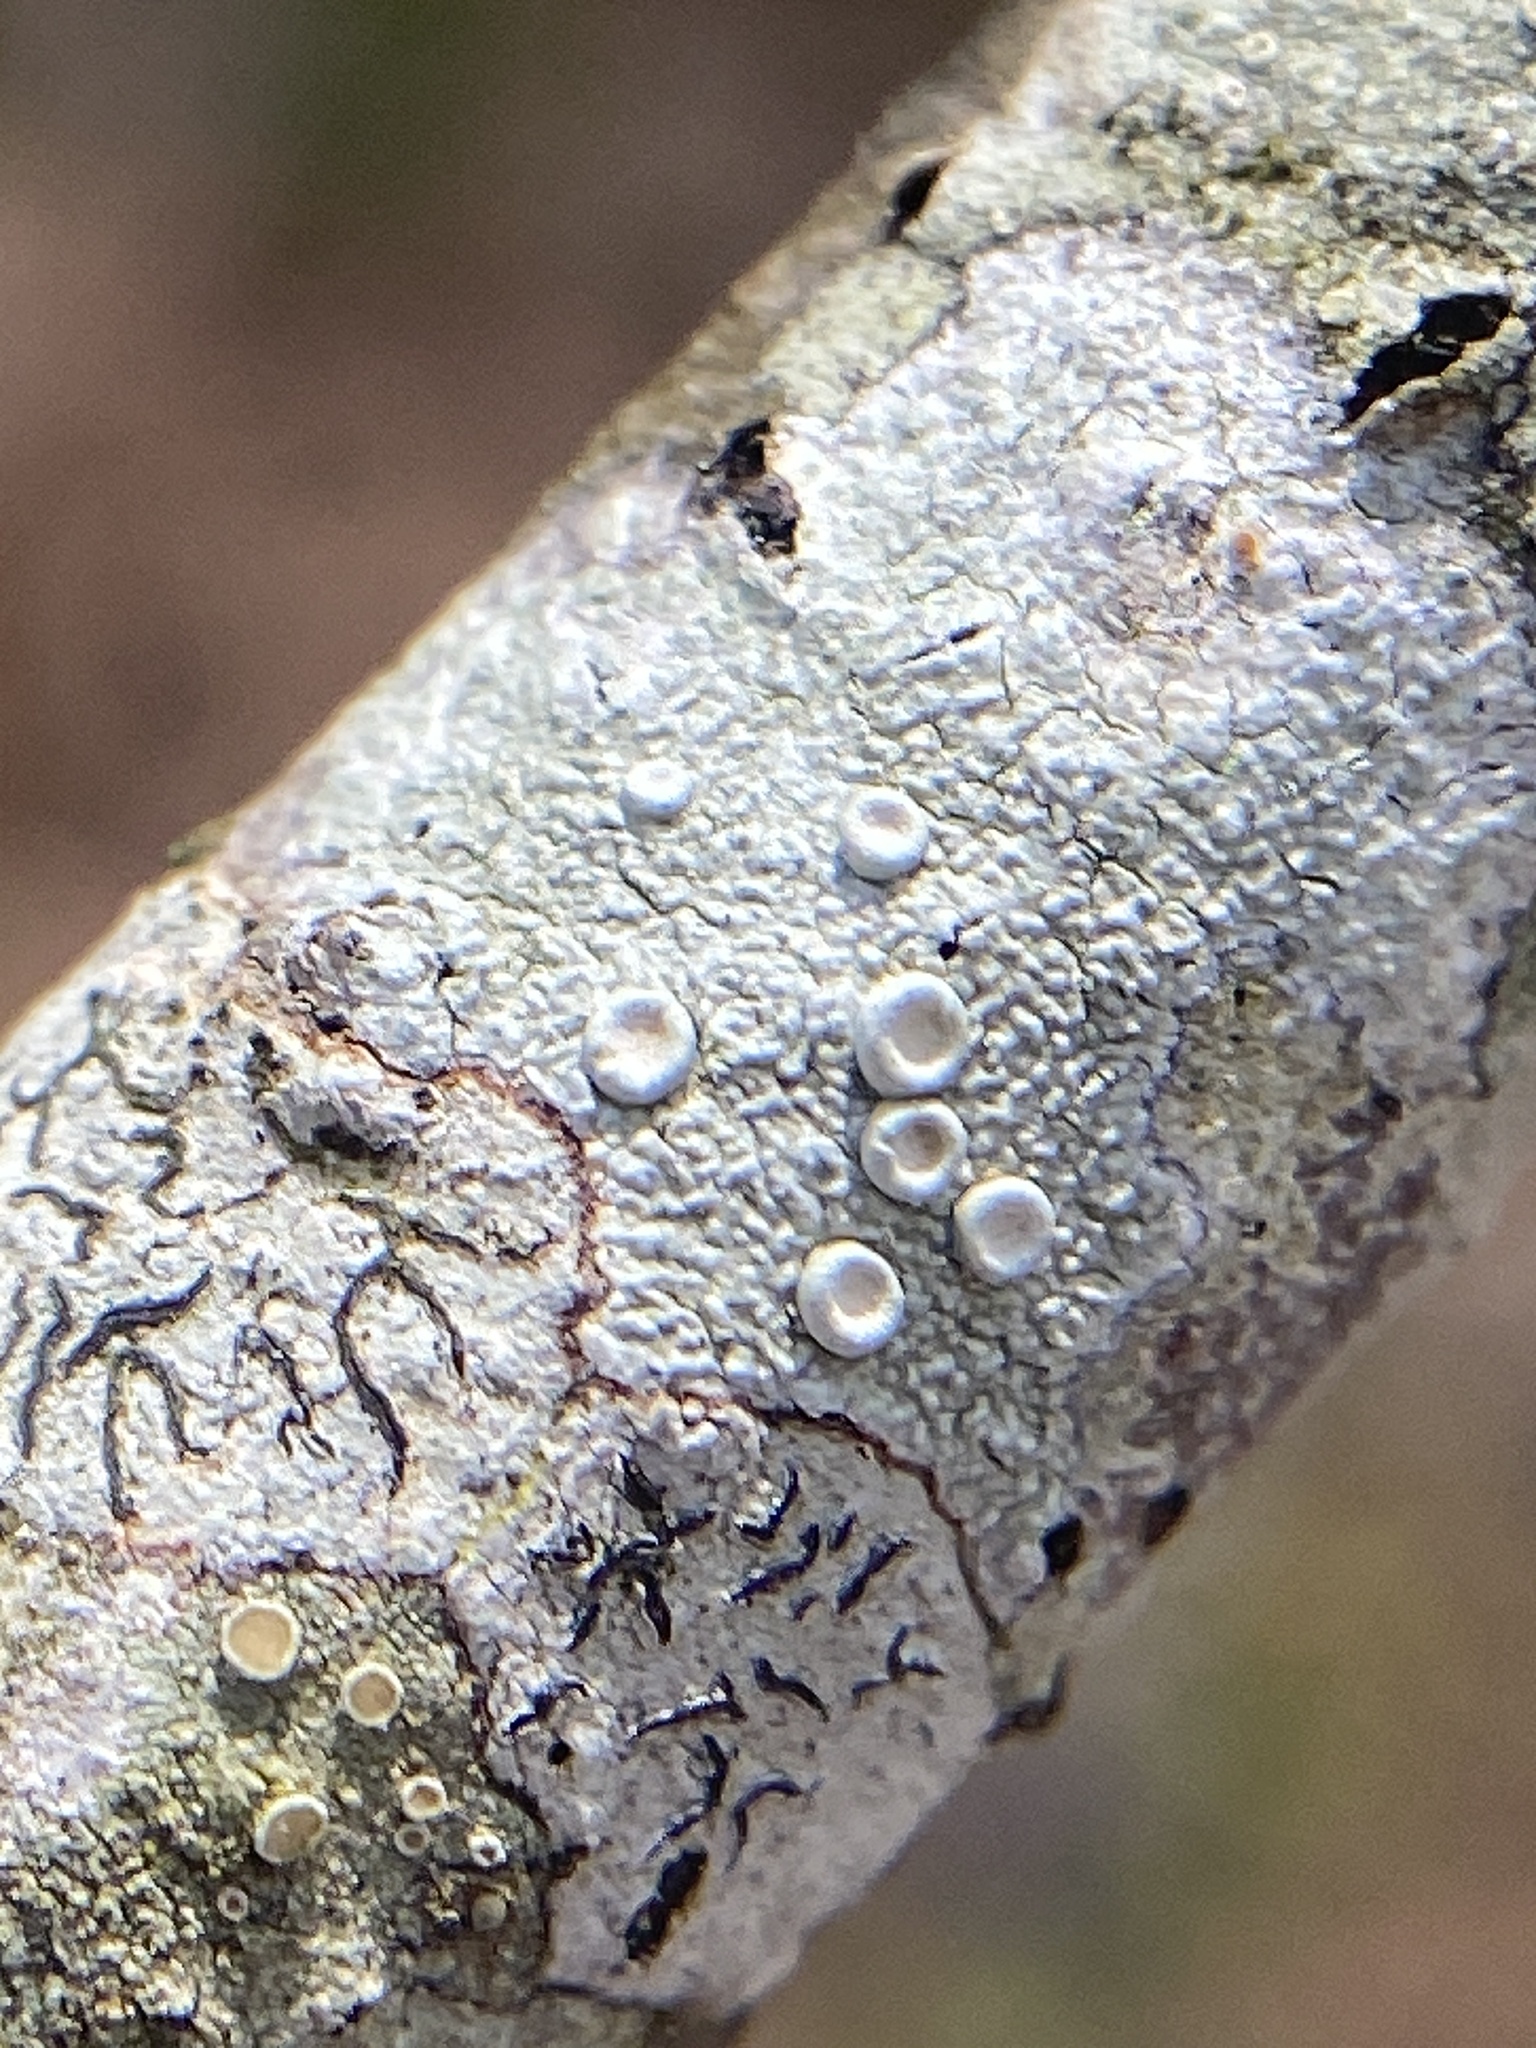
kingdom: Fungi
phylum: Ascomycota
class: Lecanoromycetes
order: Pertusariales
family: Ochrolechiaceae
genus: Ochrolechia
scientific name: Ochrolechia africana
